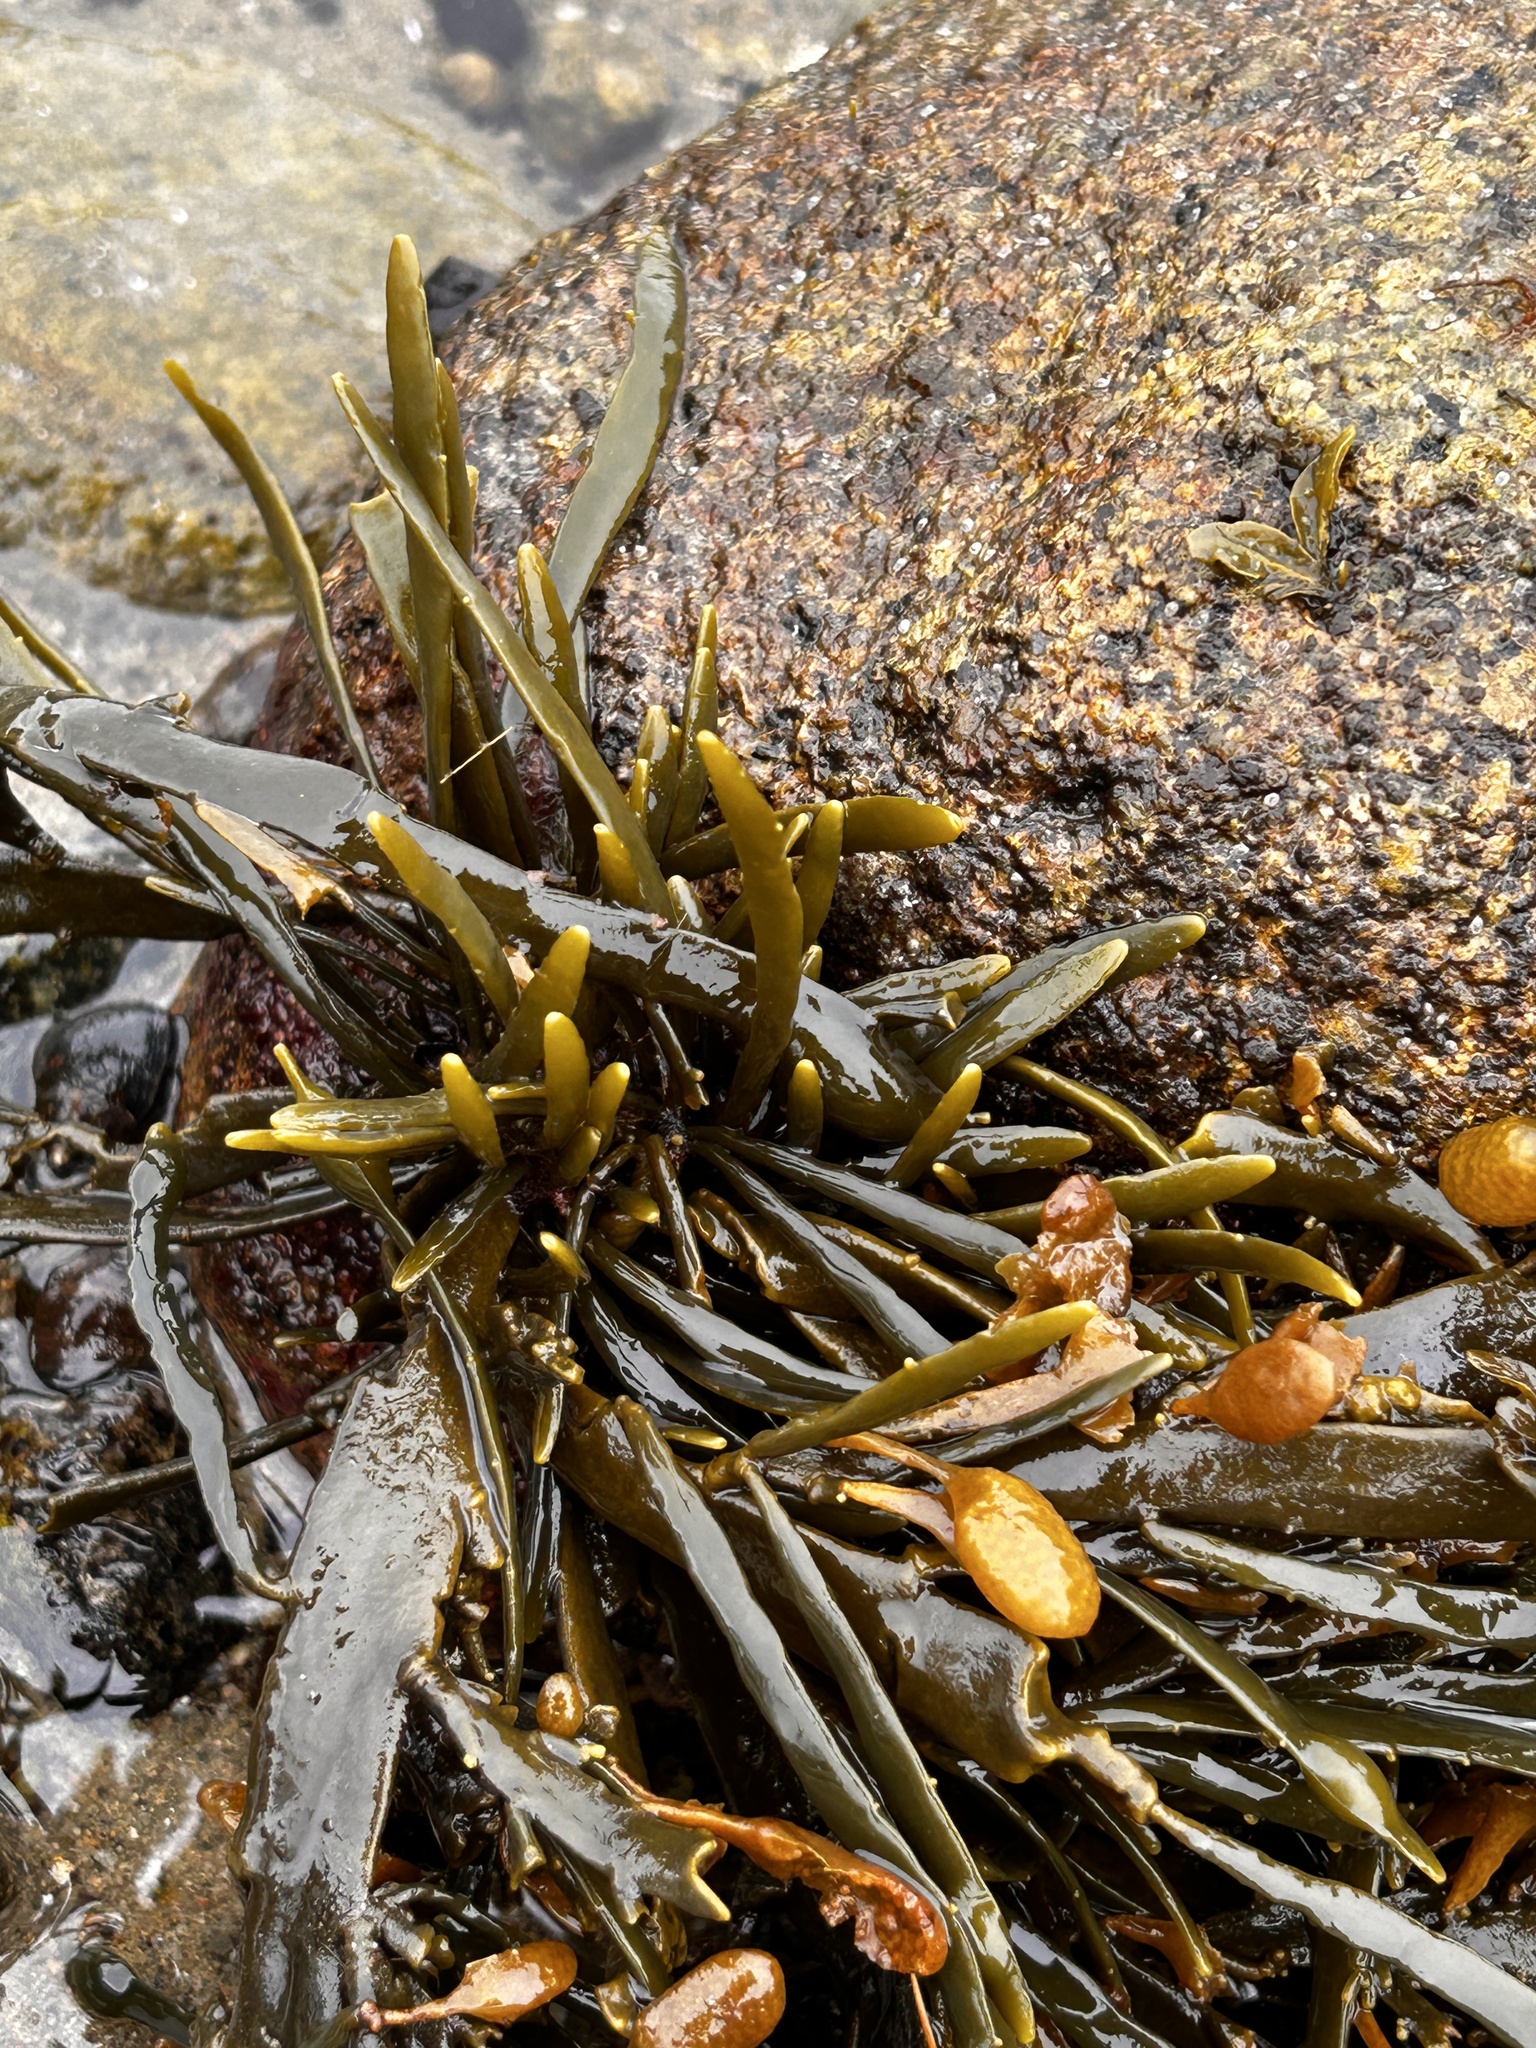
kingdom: Chromista
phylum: Ochrophyta
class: Phaeophyceae
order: Fucales
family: Fucaceae
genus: Ascophyllum
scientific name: Ascophyllum nodosum
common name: Knotted wrack
